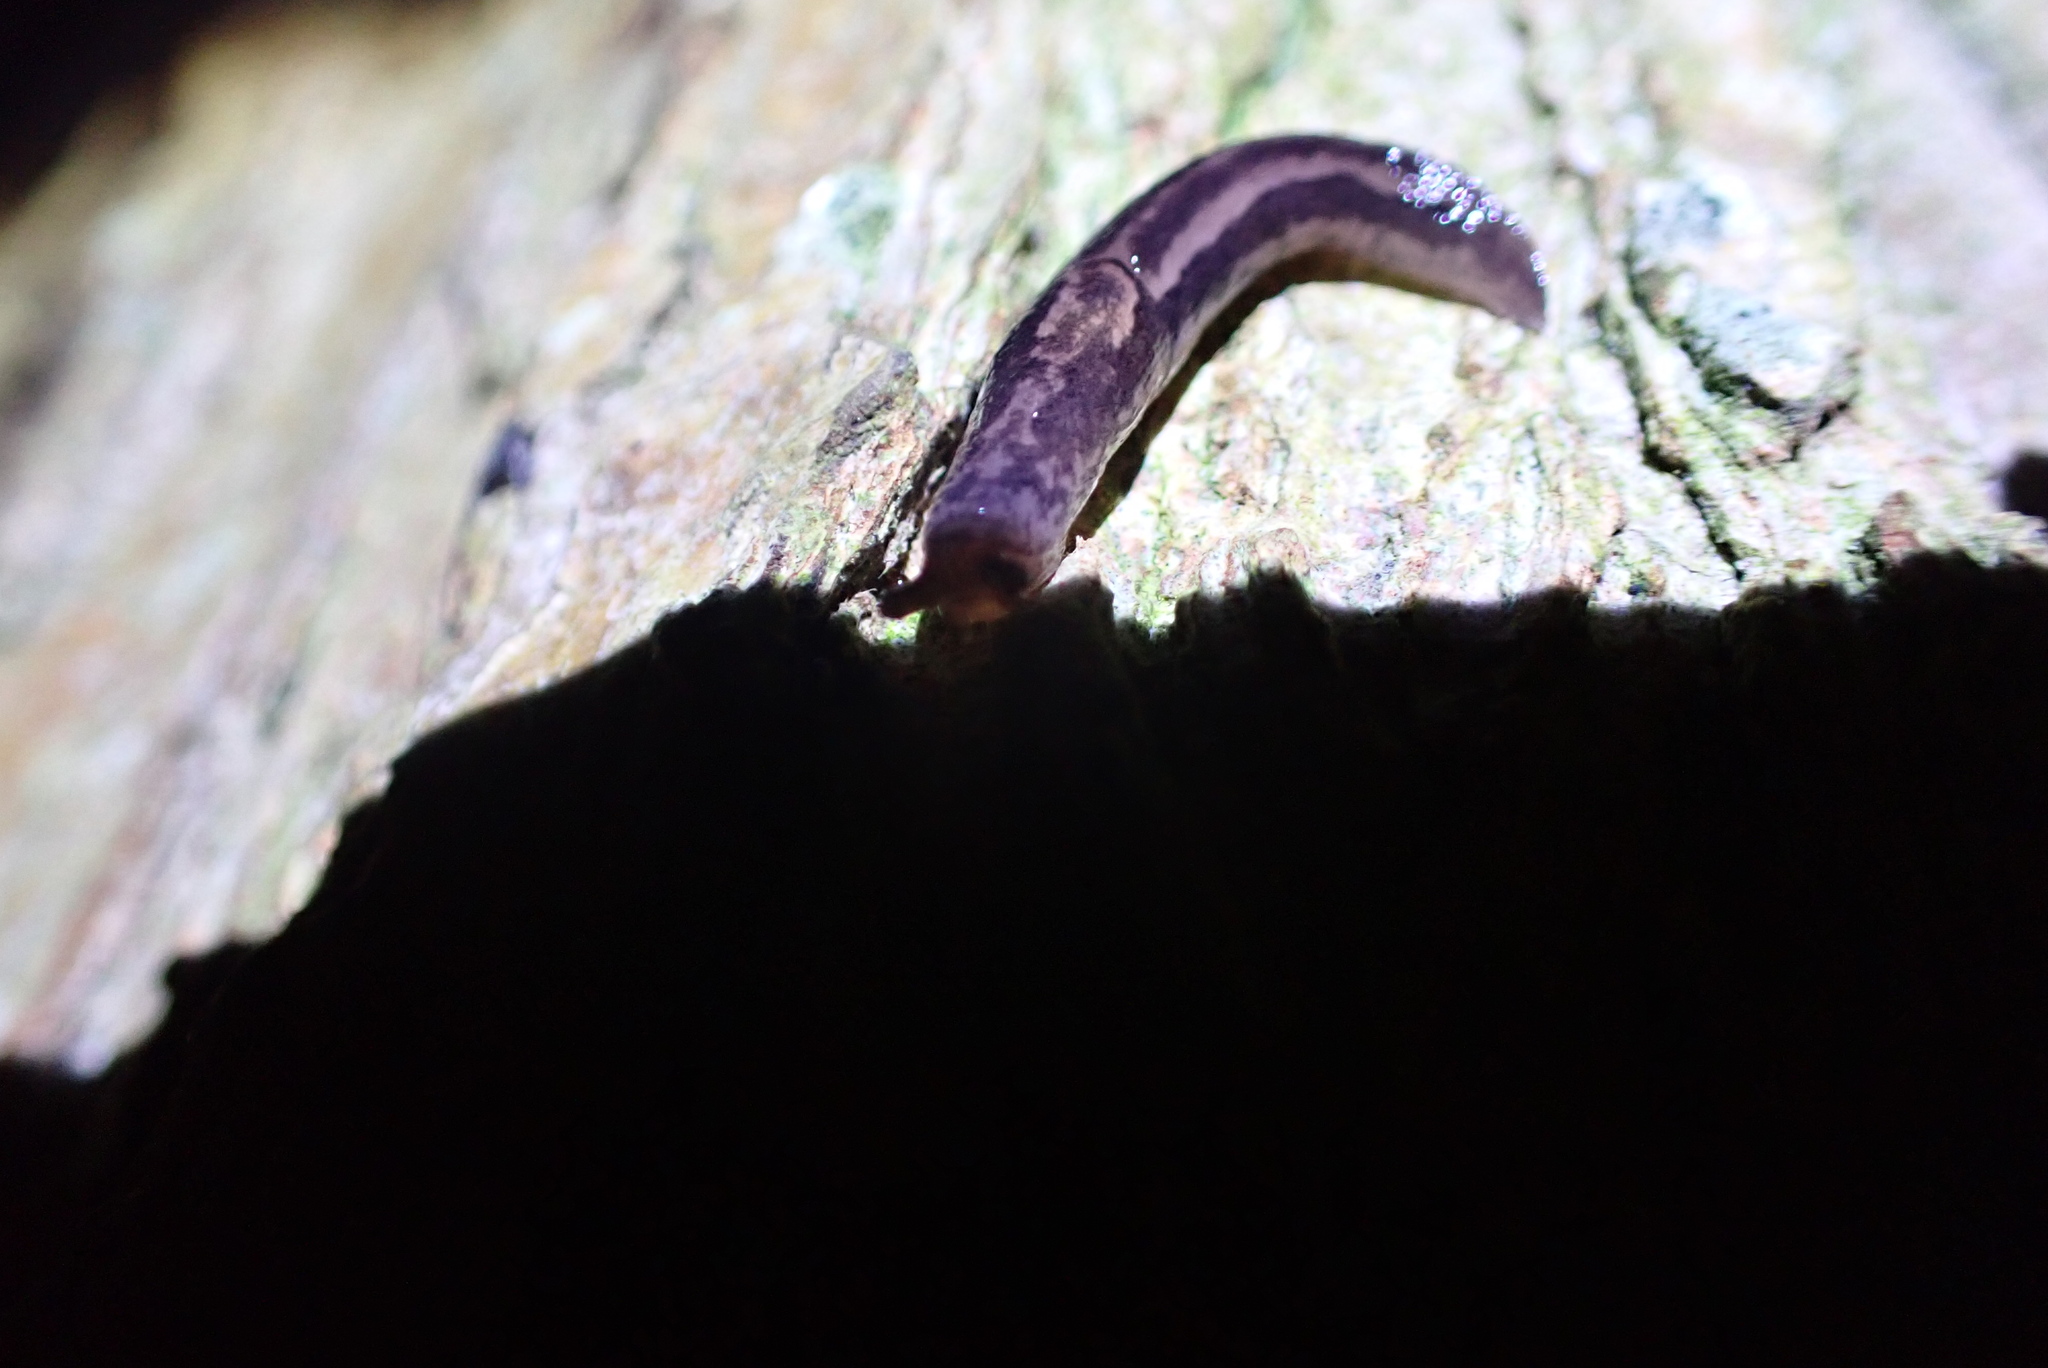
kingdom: Animalia
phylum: Mollusca
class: Gastropoda
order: Stylommatophora
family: Limacidae
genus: Limax
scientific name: Limax maximus
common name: Great grey slug
